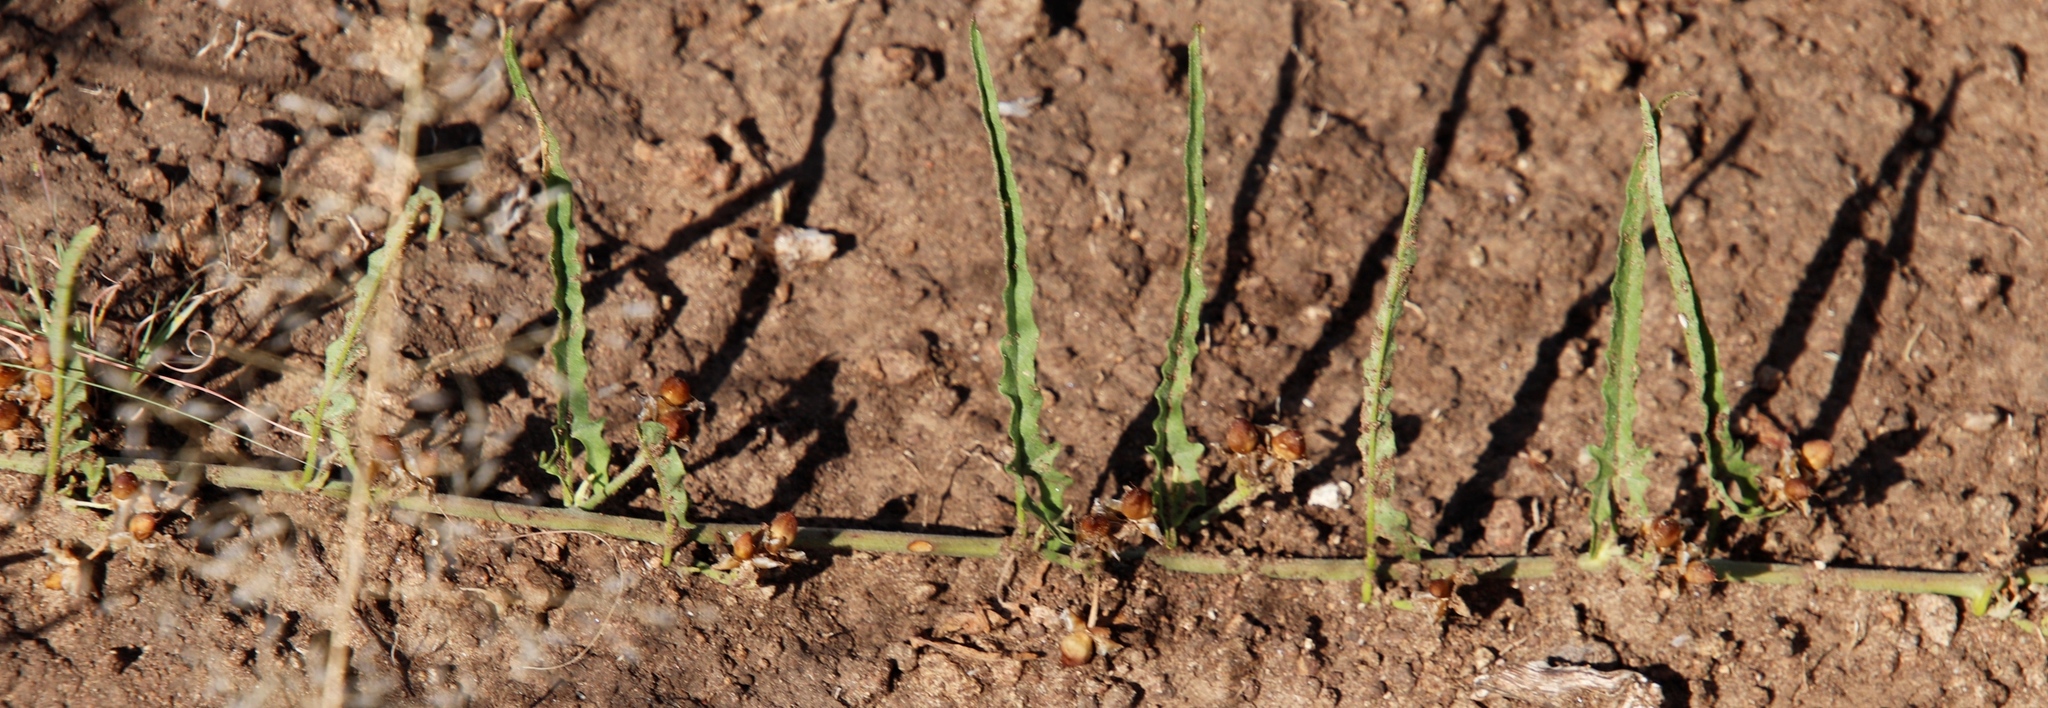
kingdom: Plantae
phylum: Tracheophyta
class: Magnoliopsida
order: Solanales
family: Convolvulaceae
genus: Convolvulus
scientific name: Convolvulus sagittatus
